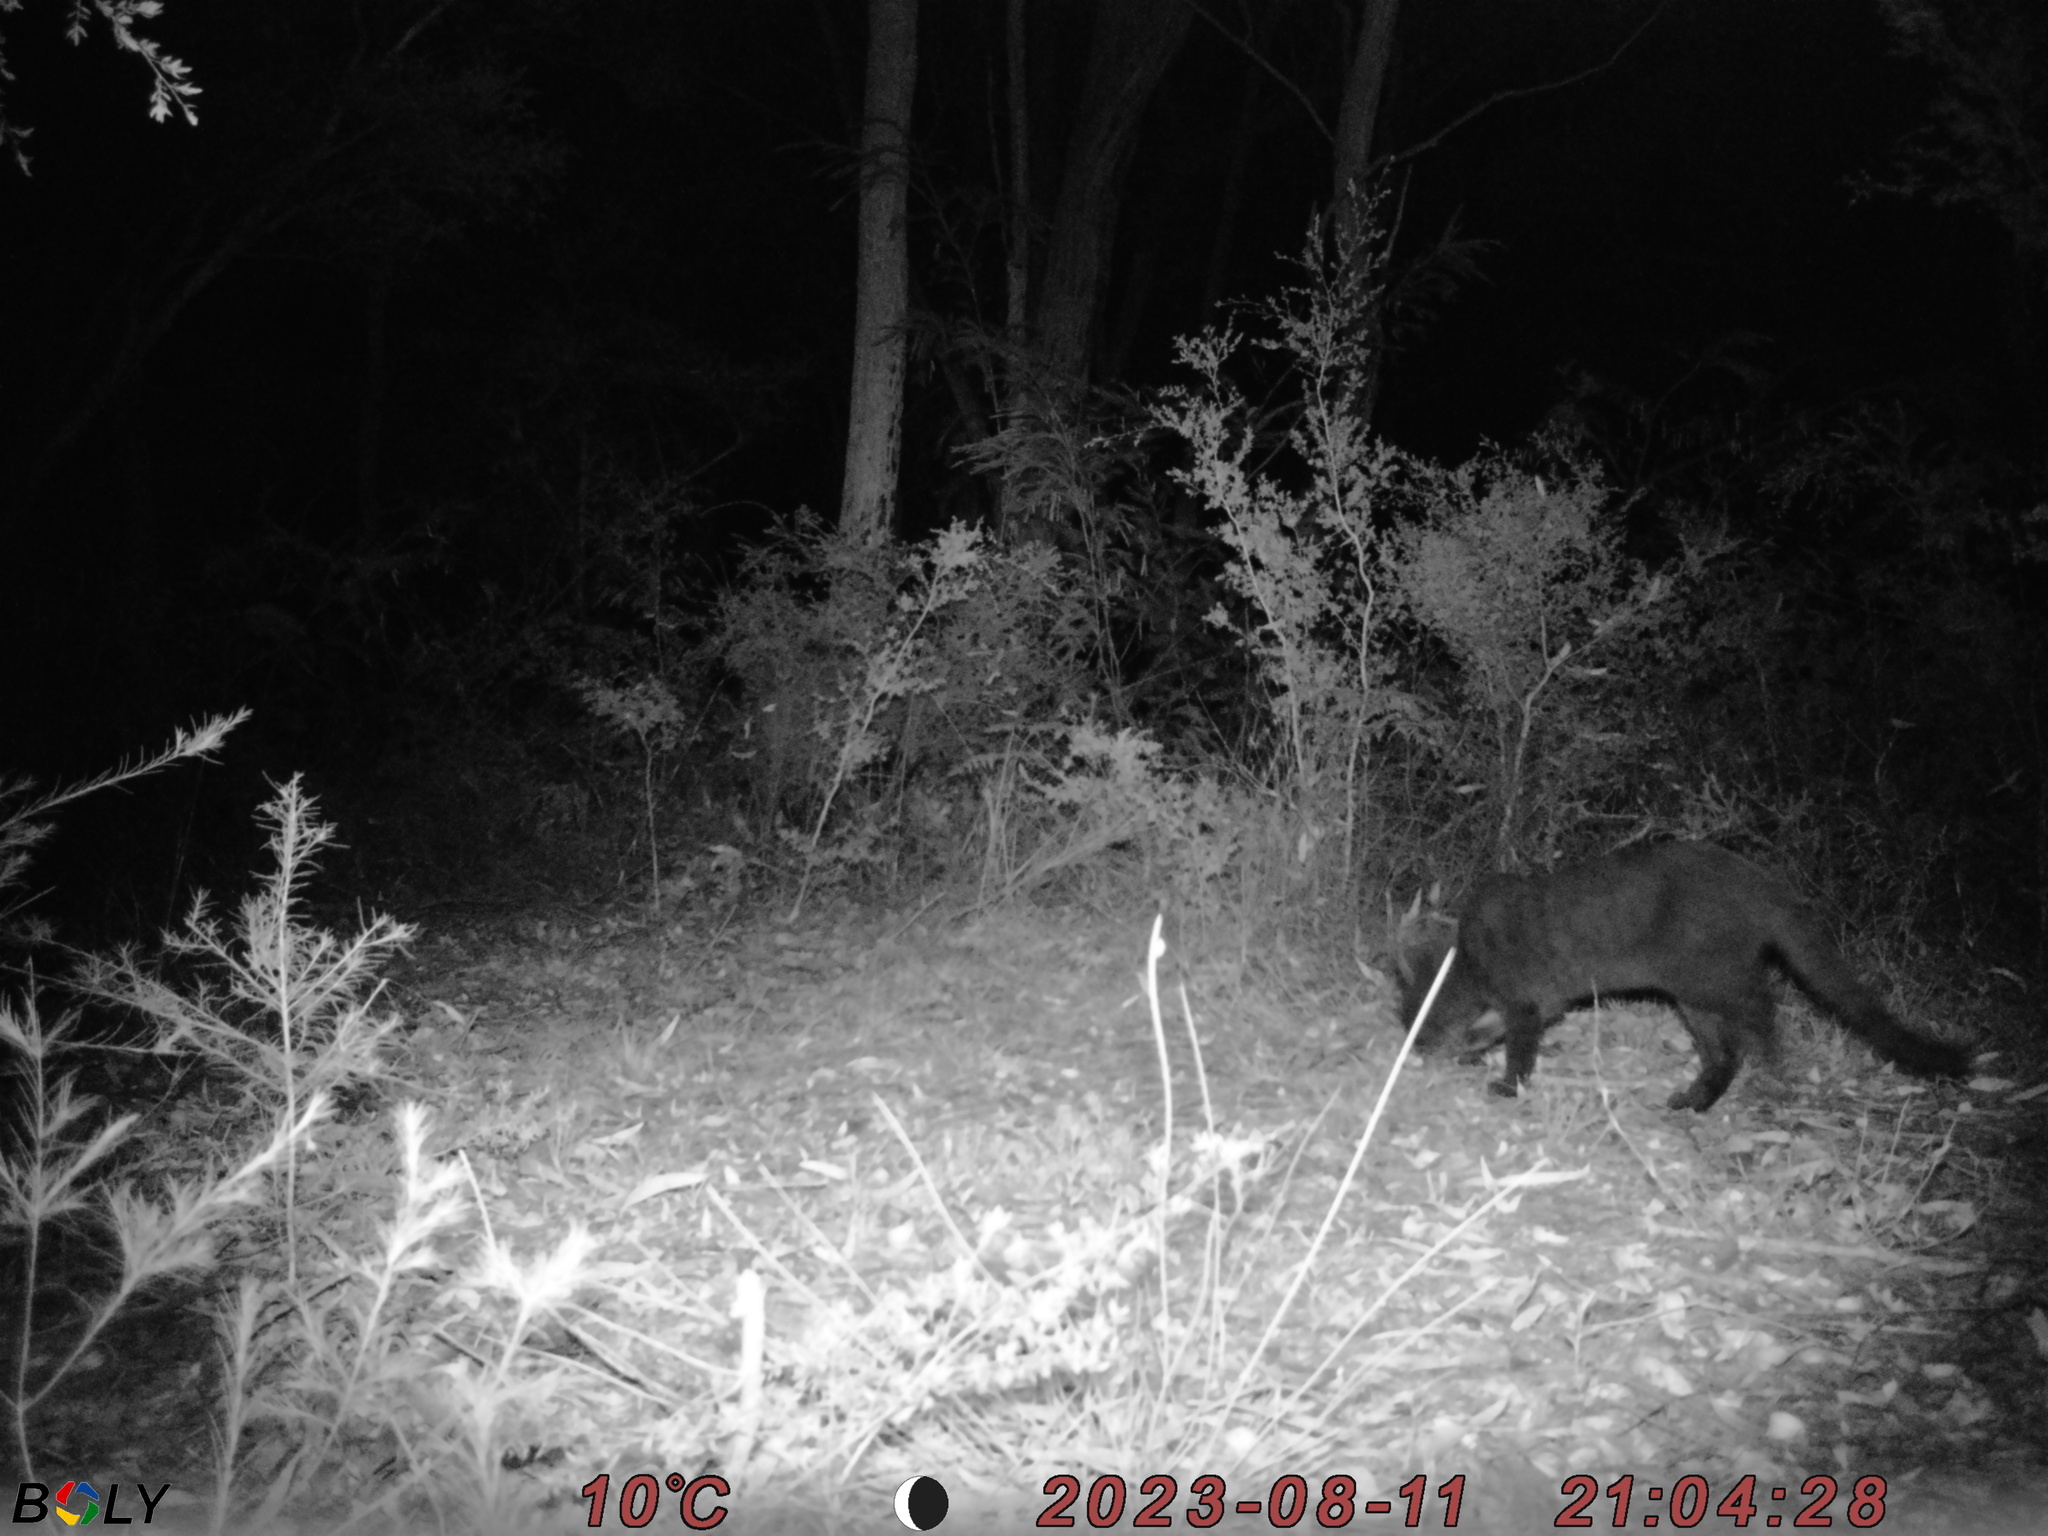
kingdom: Animalia
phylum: Chordata
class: Mammalia
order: Carnivora
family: Felidae
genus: Felis
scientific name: Felis catus
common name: Domestic cat
